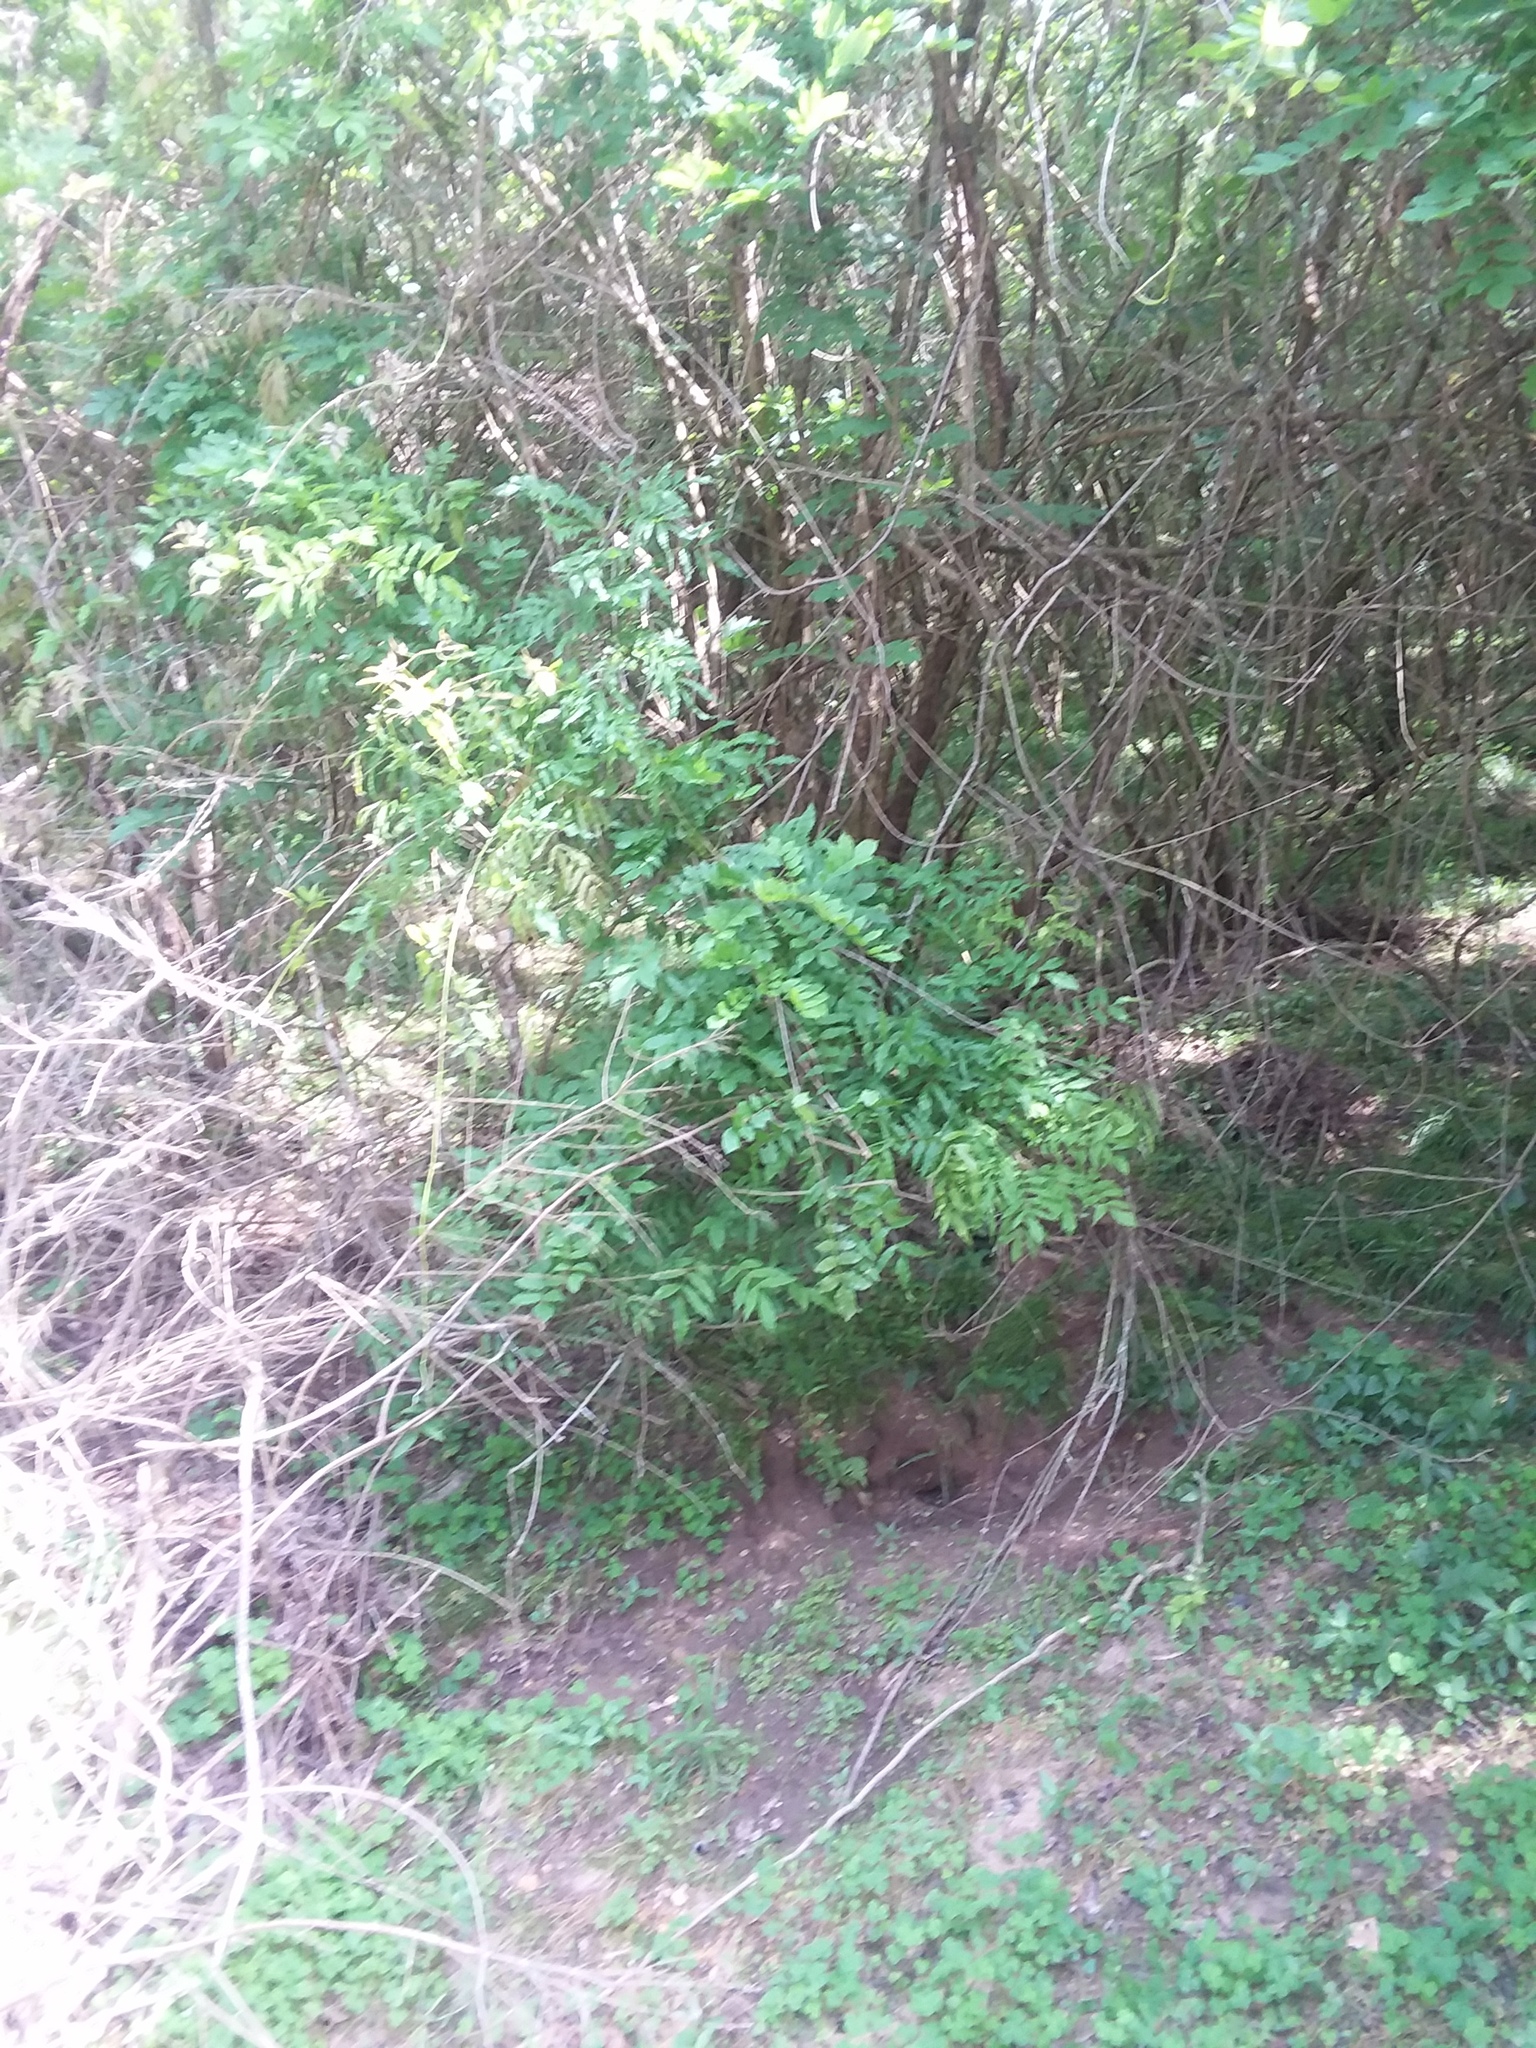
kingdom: Plantae
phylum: Tracheophyta
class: Magnoliopsida
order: Fabales
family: Fabaceae
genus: Wisteria
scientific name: Wisteria sinensis
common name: Chinese wisteria
